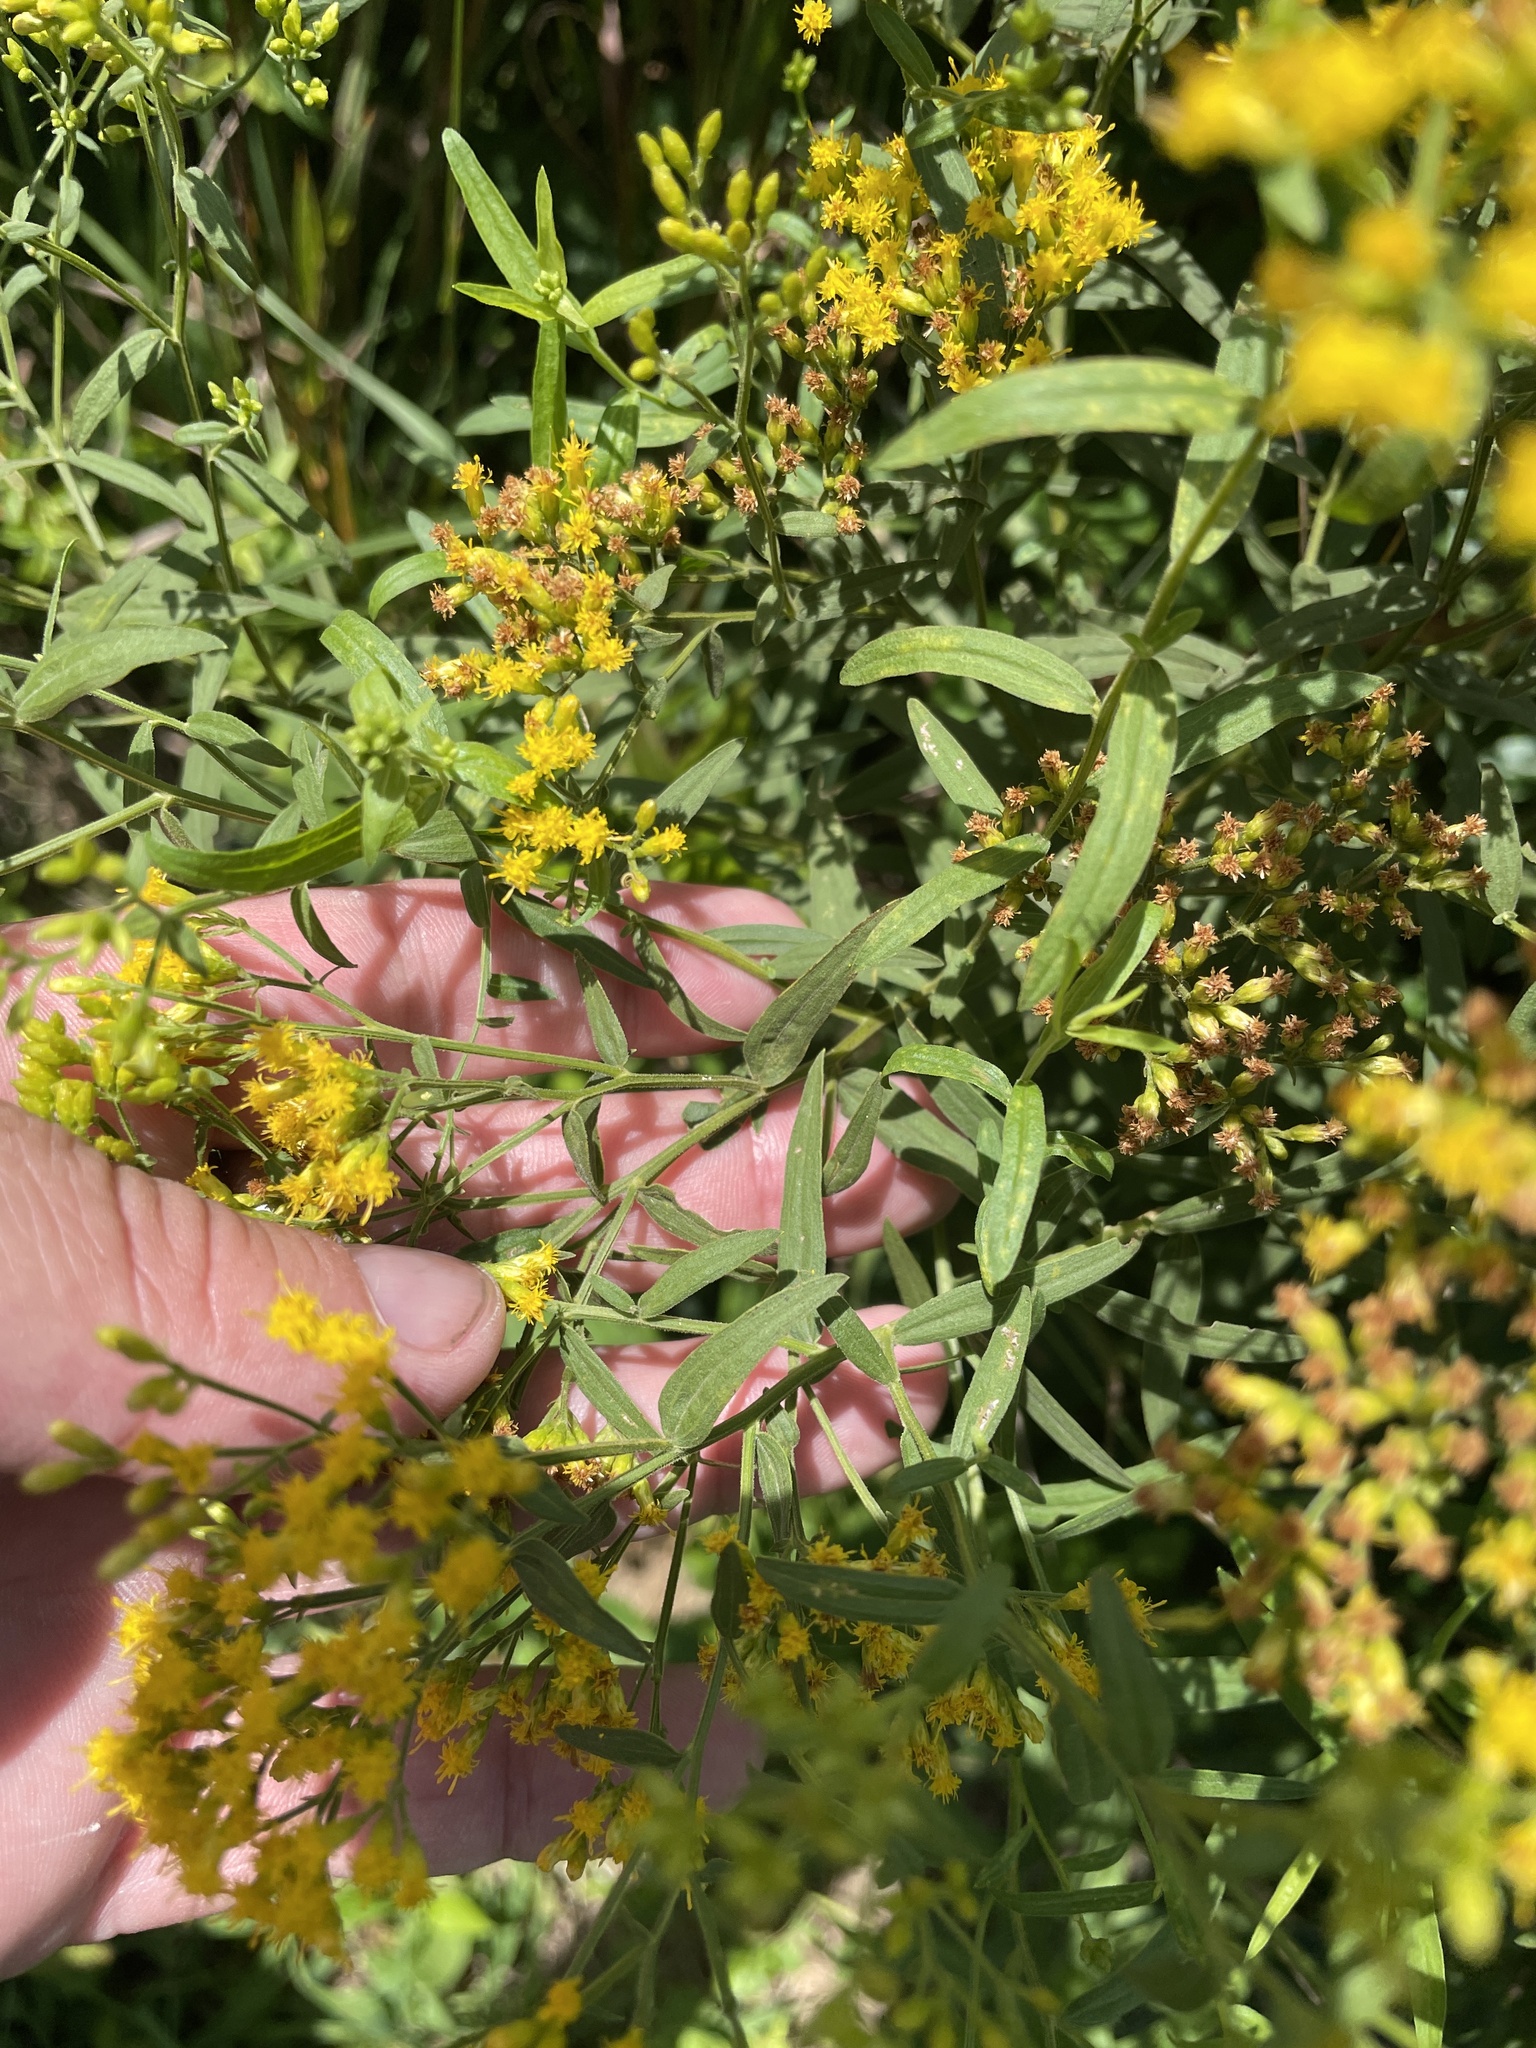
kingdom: Plantae
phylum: Tracheophyta
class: Magnoliopsida
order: Asterales
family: Asteraceae
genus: Euthamia
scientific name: Euthamia graminifolia
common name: Common goldentop
